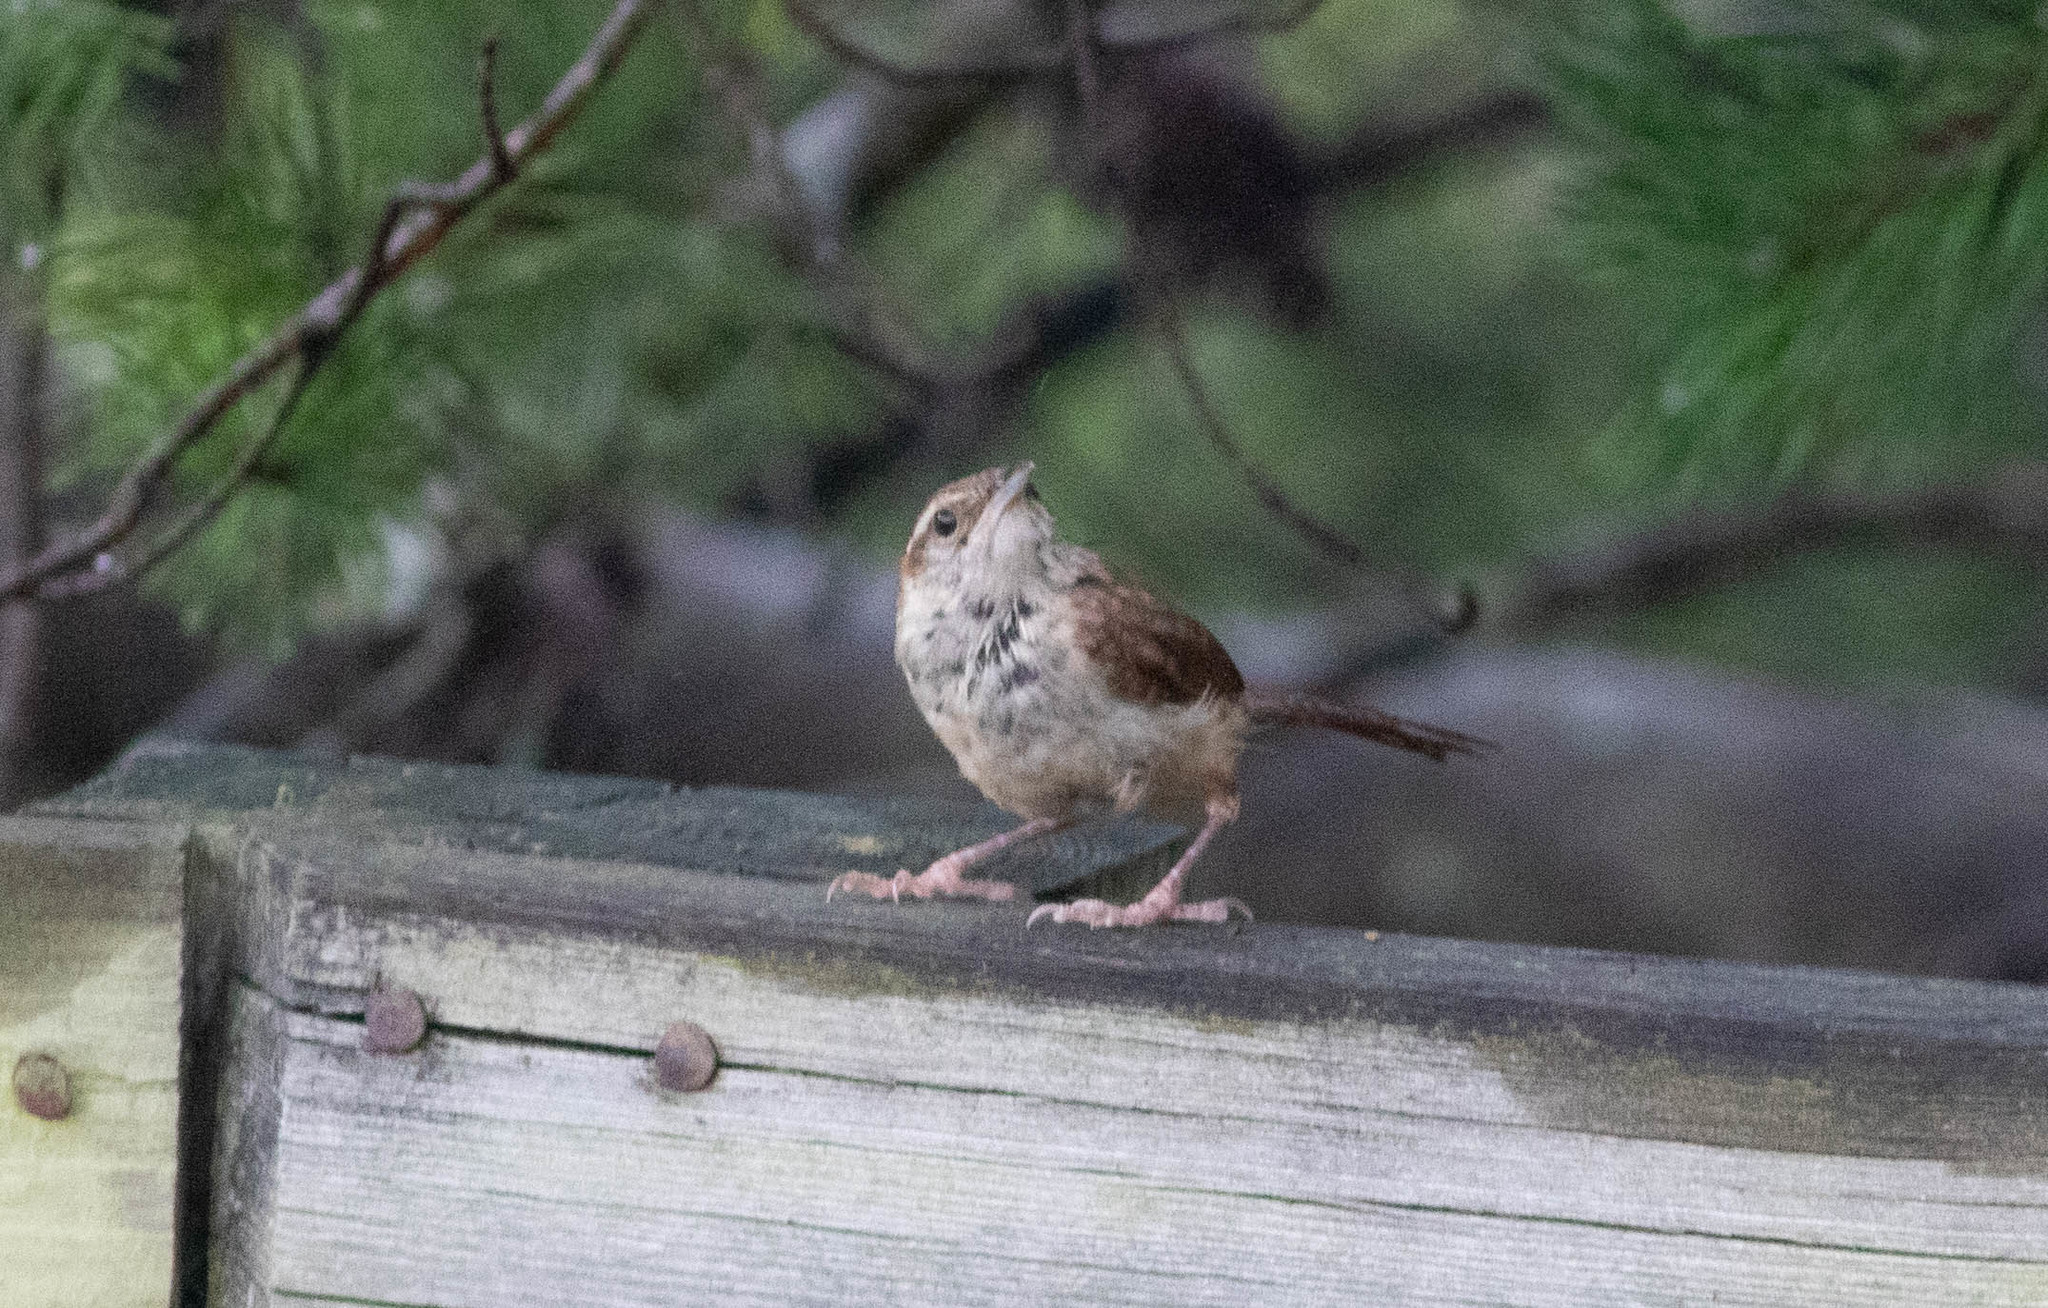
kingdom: Animalia
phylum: Chordata
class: Aves
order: Passeriformes
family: Troglodytidae
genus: Thryothorus
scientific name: Thryothorus ludovicianus
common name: Carolina wren
